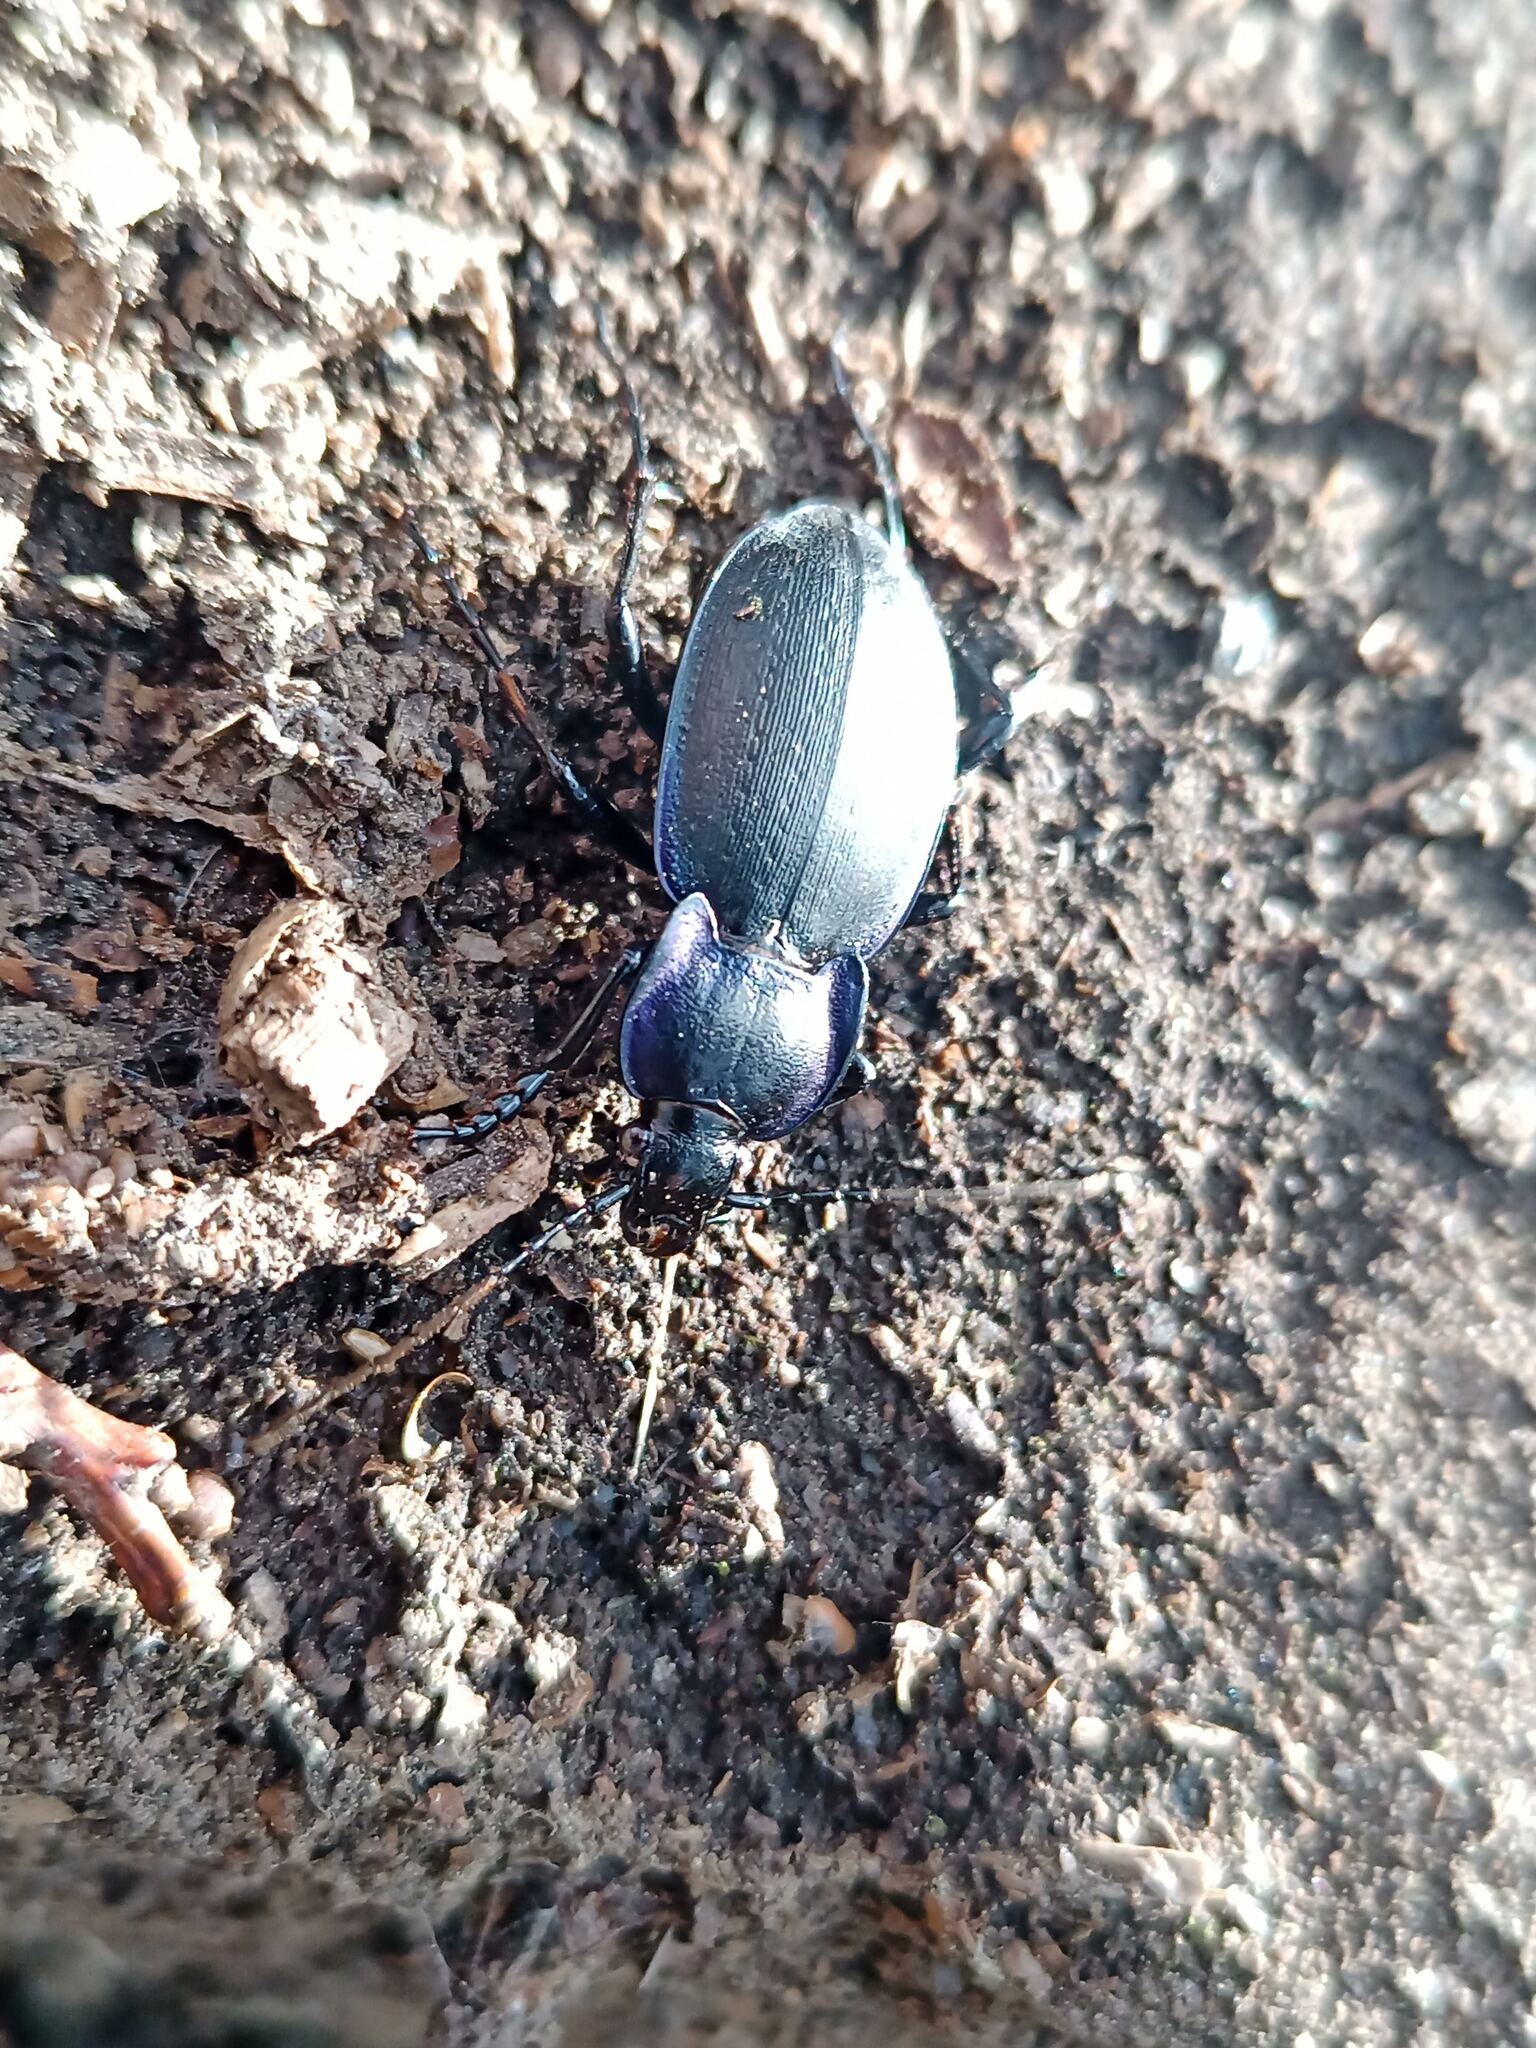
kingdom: Animalia
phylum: Arthropoda
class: Insecta
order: Coleoptera
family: Carabidae
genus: Carabus
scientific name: Carabus luetgensi
